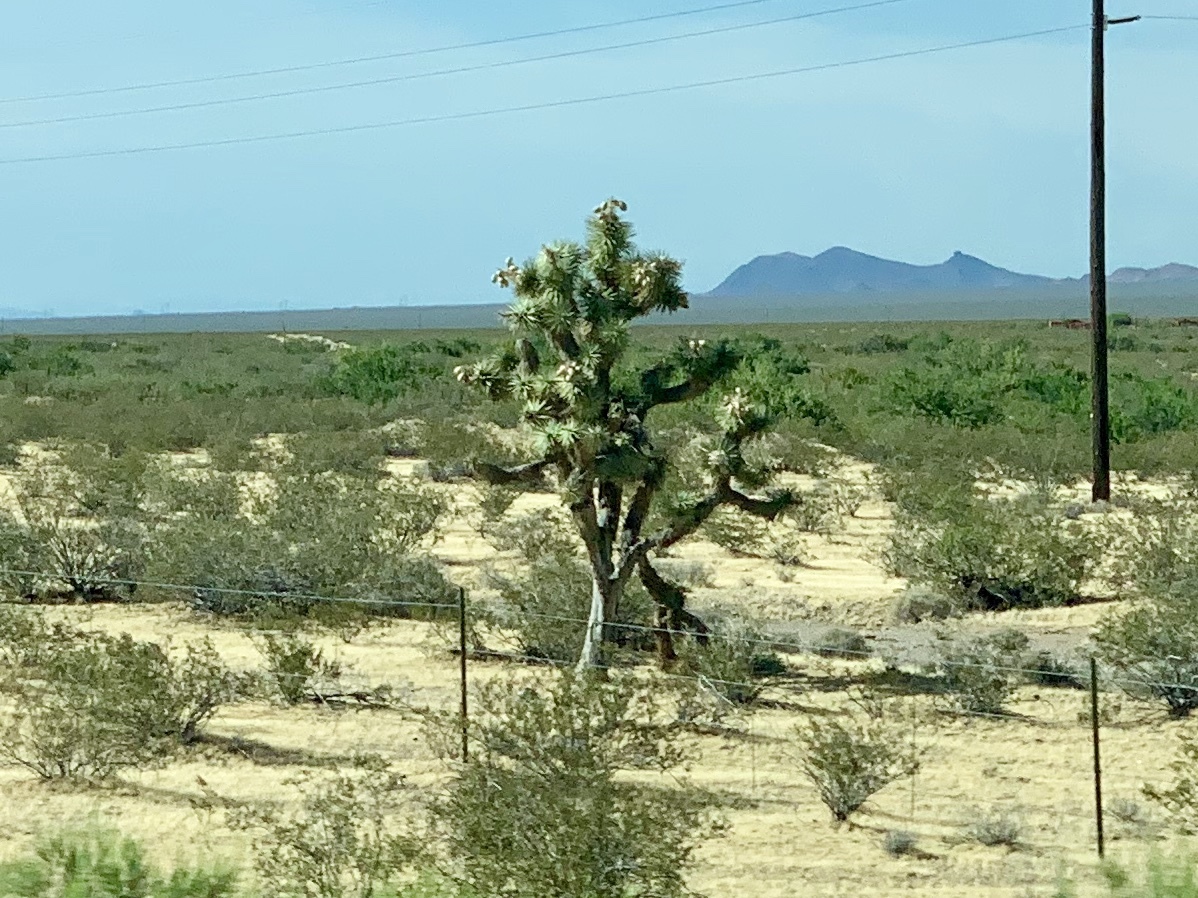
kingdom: Plantae
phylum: Tracheophyta
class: Liliopsida
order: Asparagales
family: Asparagaceae
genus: Yucca
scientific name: Yucca brevifolia
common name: Joshua tree
